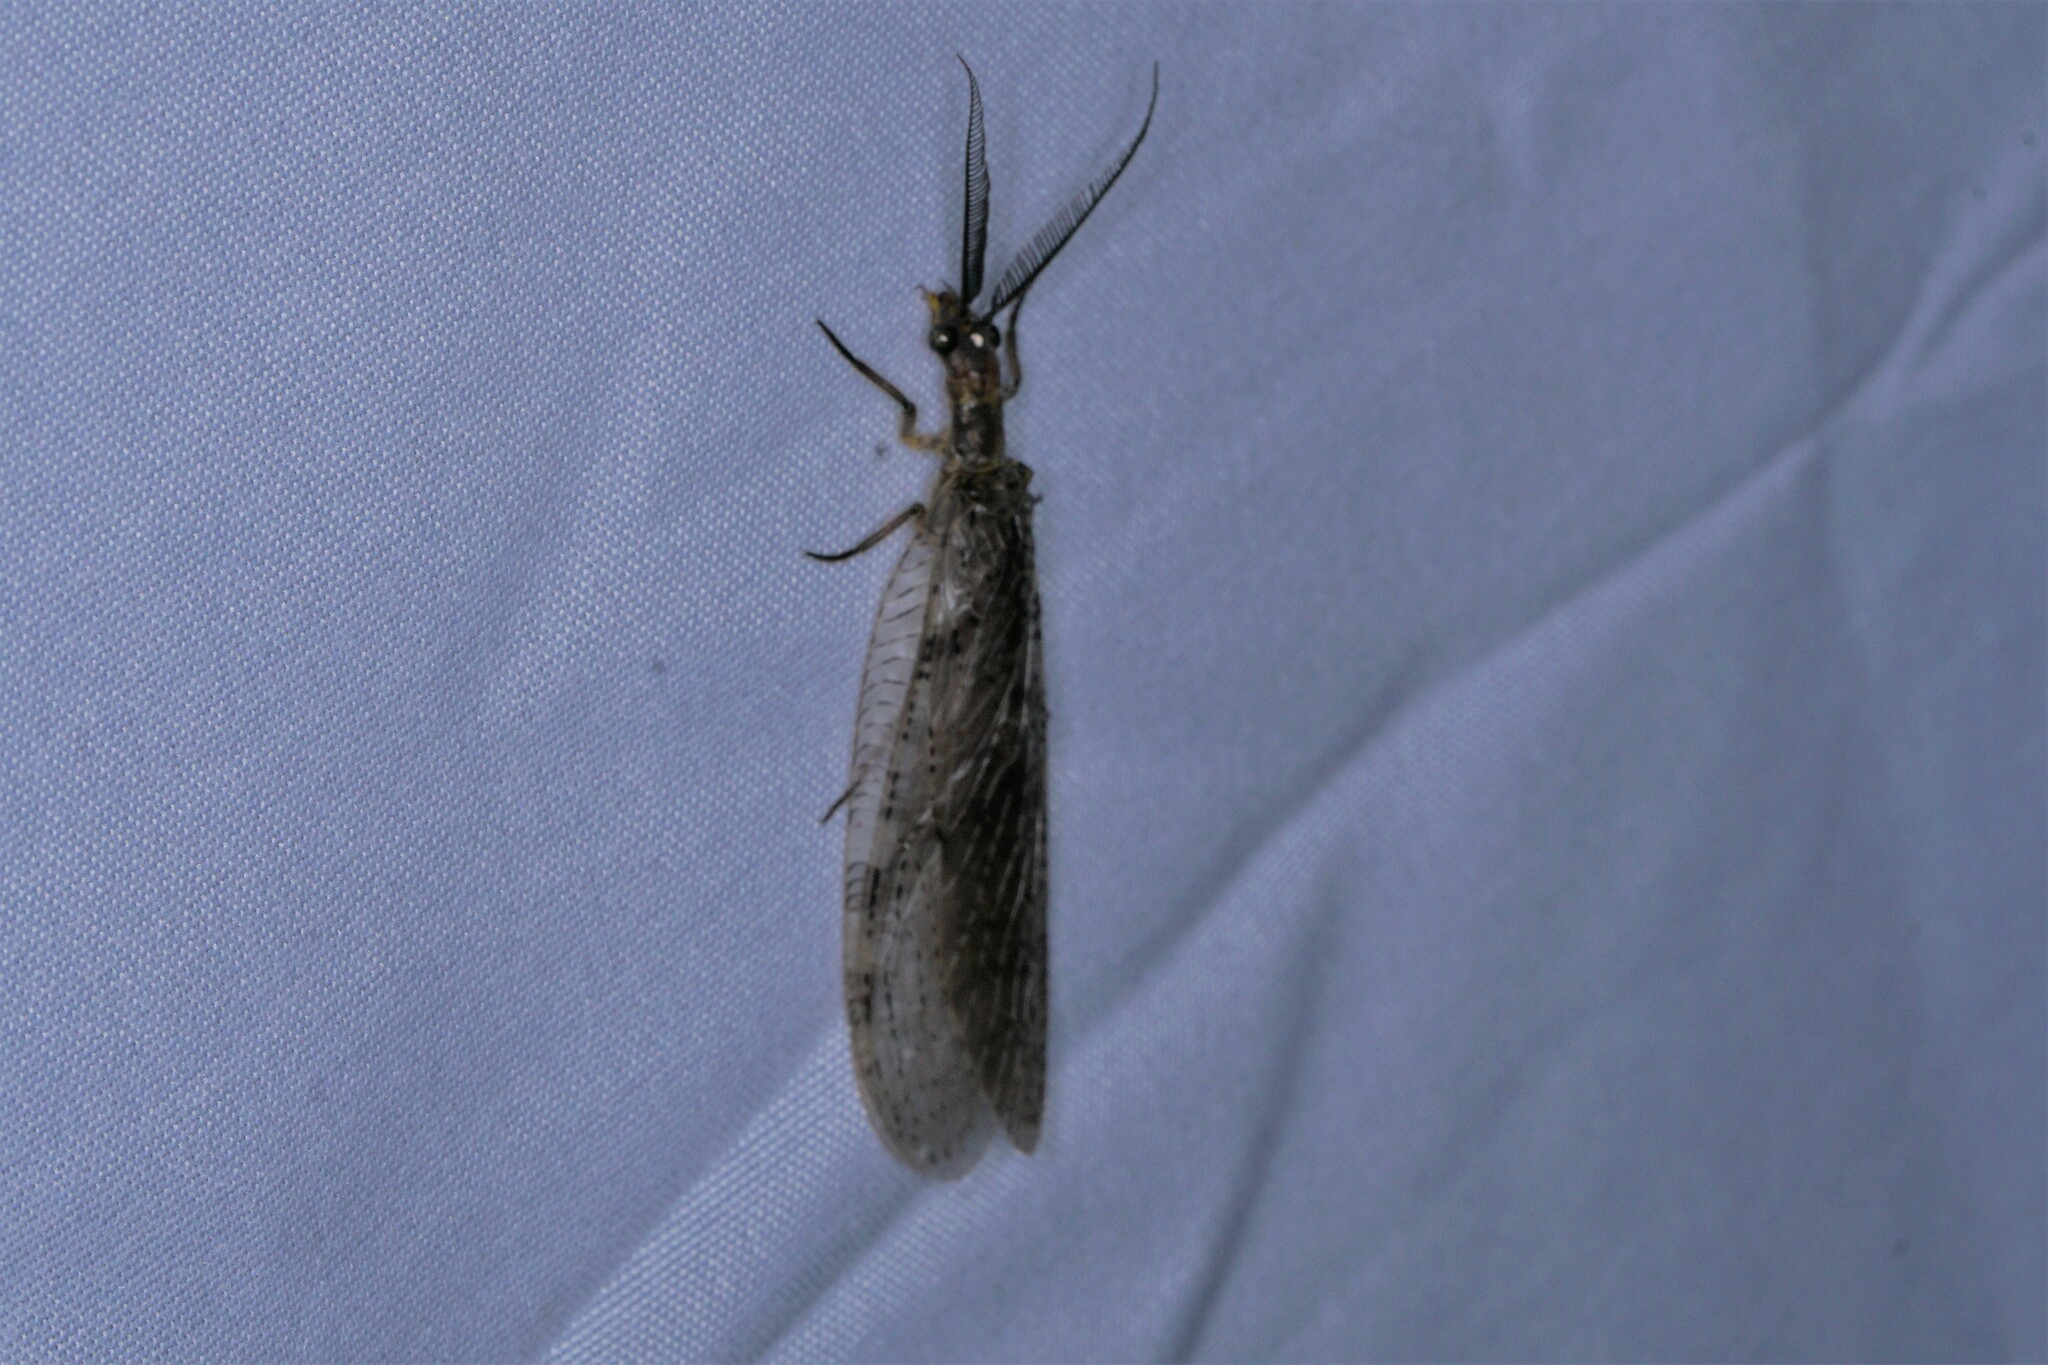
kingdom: Animalia
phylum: Arthropoda
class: Insecta
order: Megaloptera
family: Corydalidae
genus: Chauliodes
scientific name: Chauliodes pectinicornis
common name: Summer fishfly
